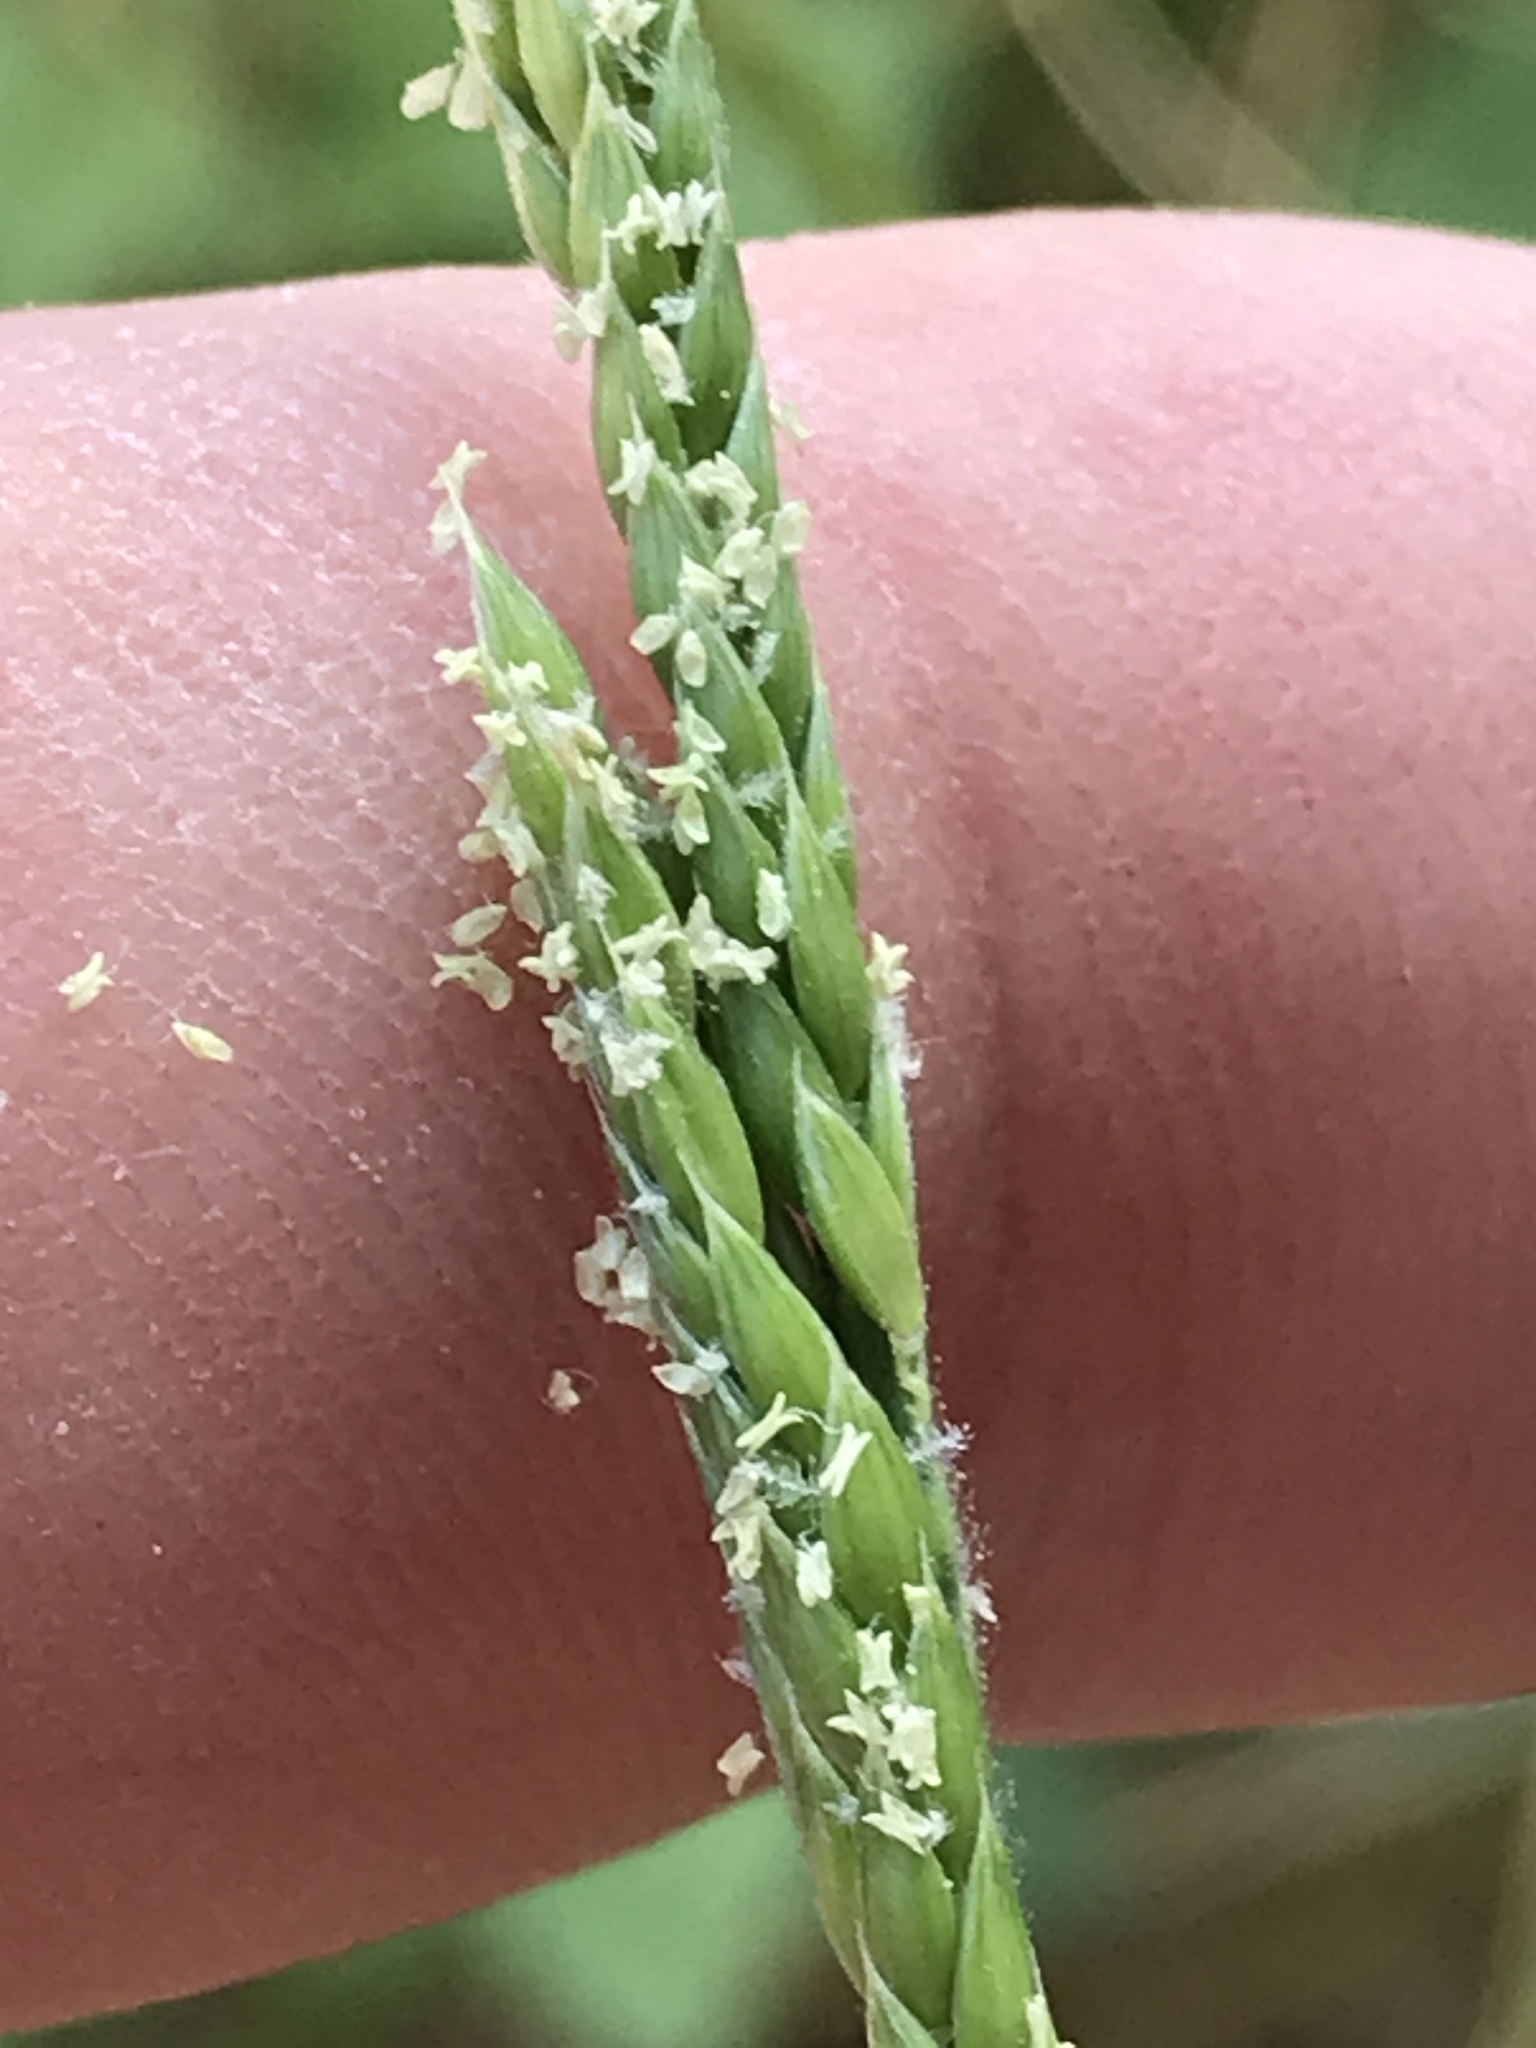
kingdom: Plantae
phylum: Tracheophyta
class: Liliopsida
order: Poales
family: Poaceae
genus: Eriochloa
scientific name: Eriochloa contracta
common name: Prairie cup grass
